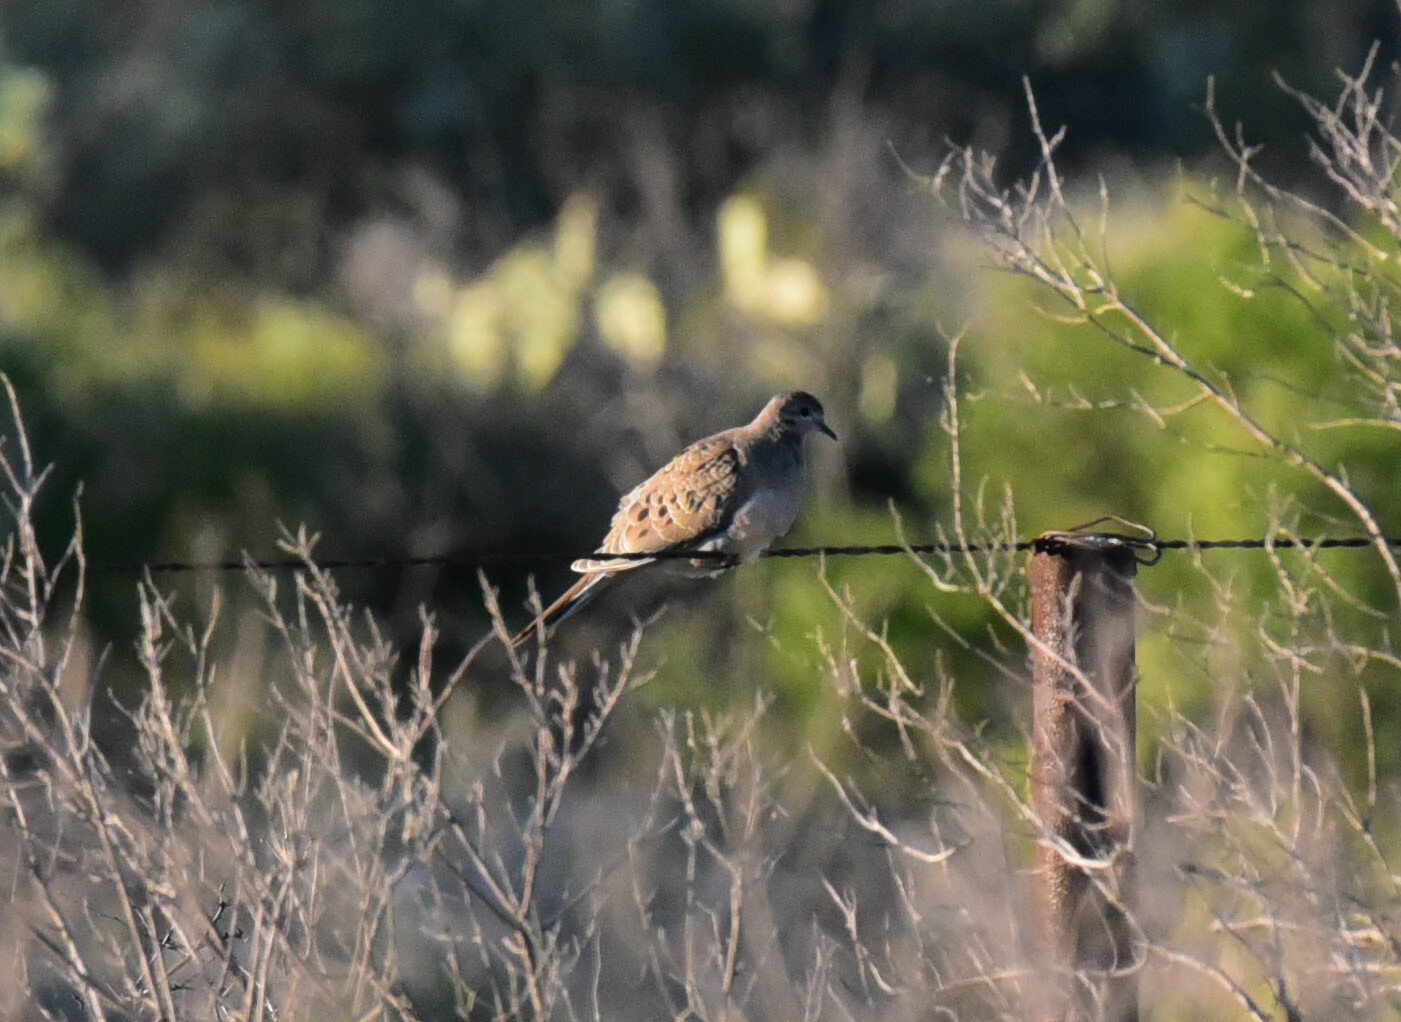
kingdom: Animalia
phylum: Chordata
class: Aves
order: Columbiformes
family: Columbidae
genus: Zenaida
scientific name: Zenaida macroura
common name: Mourning dove
